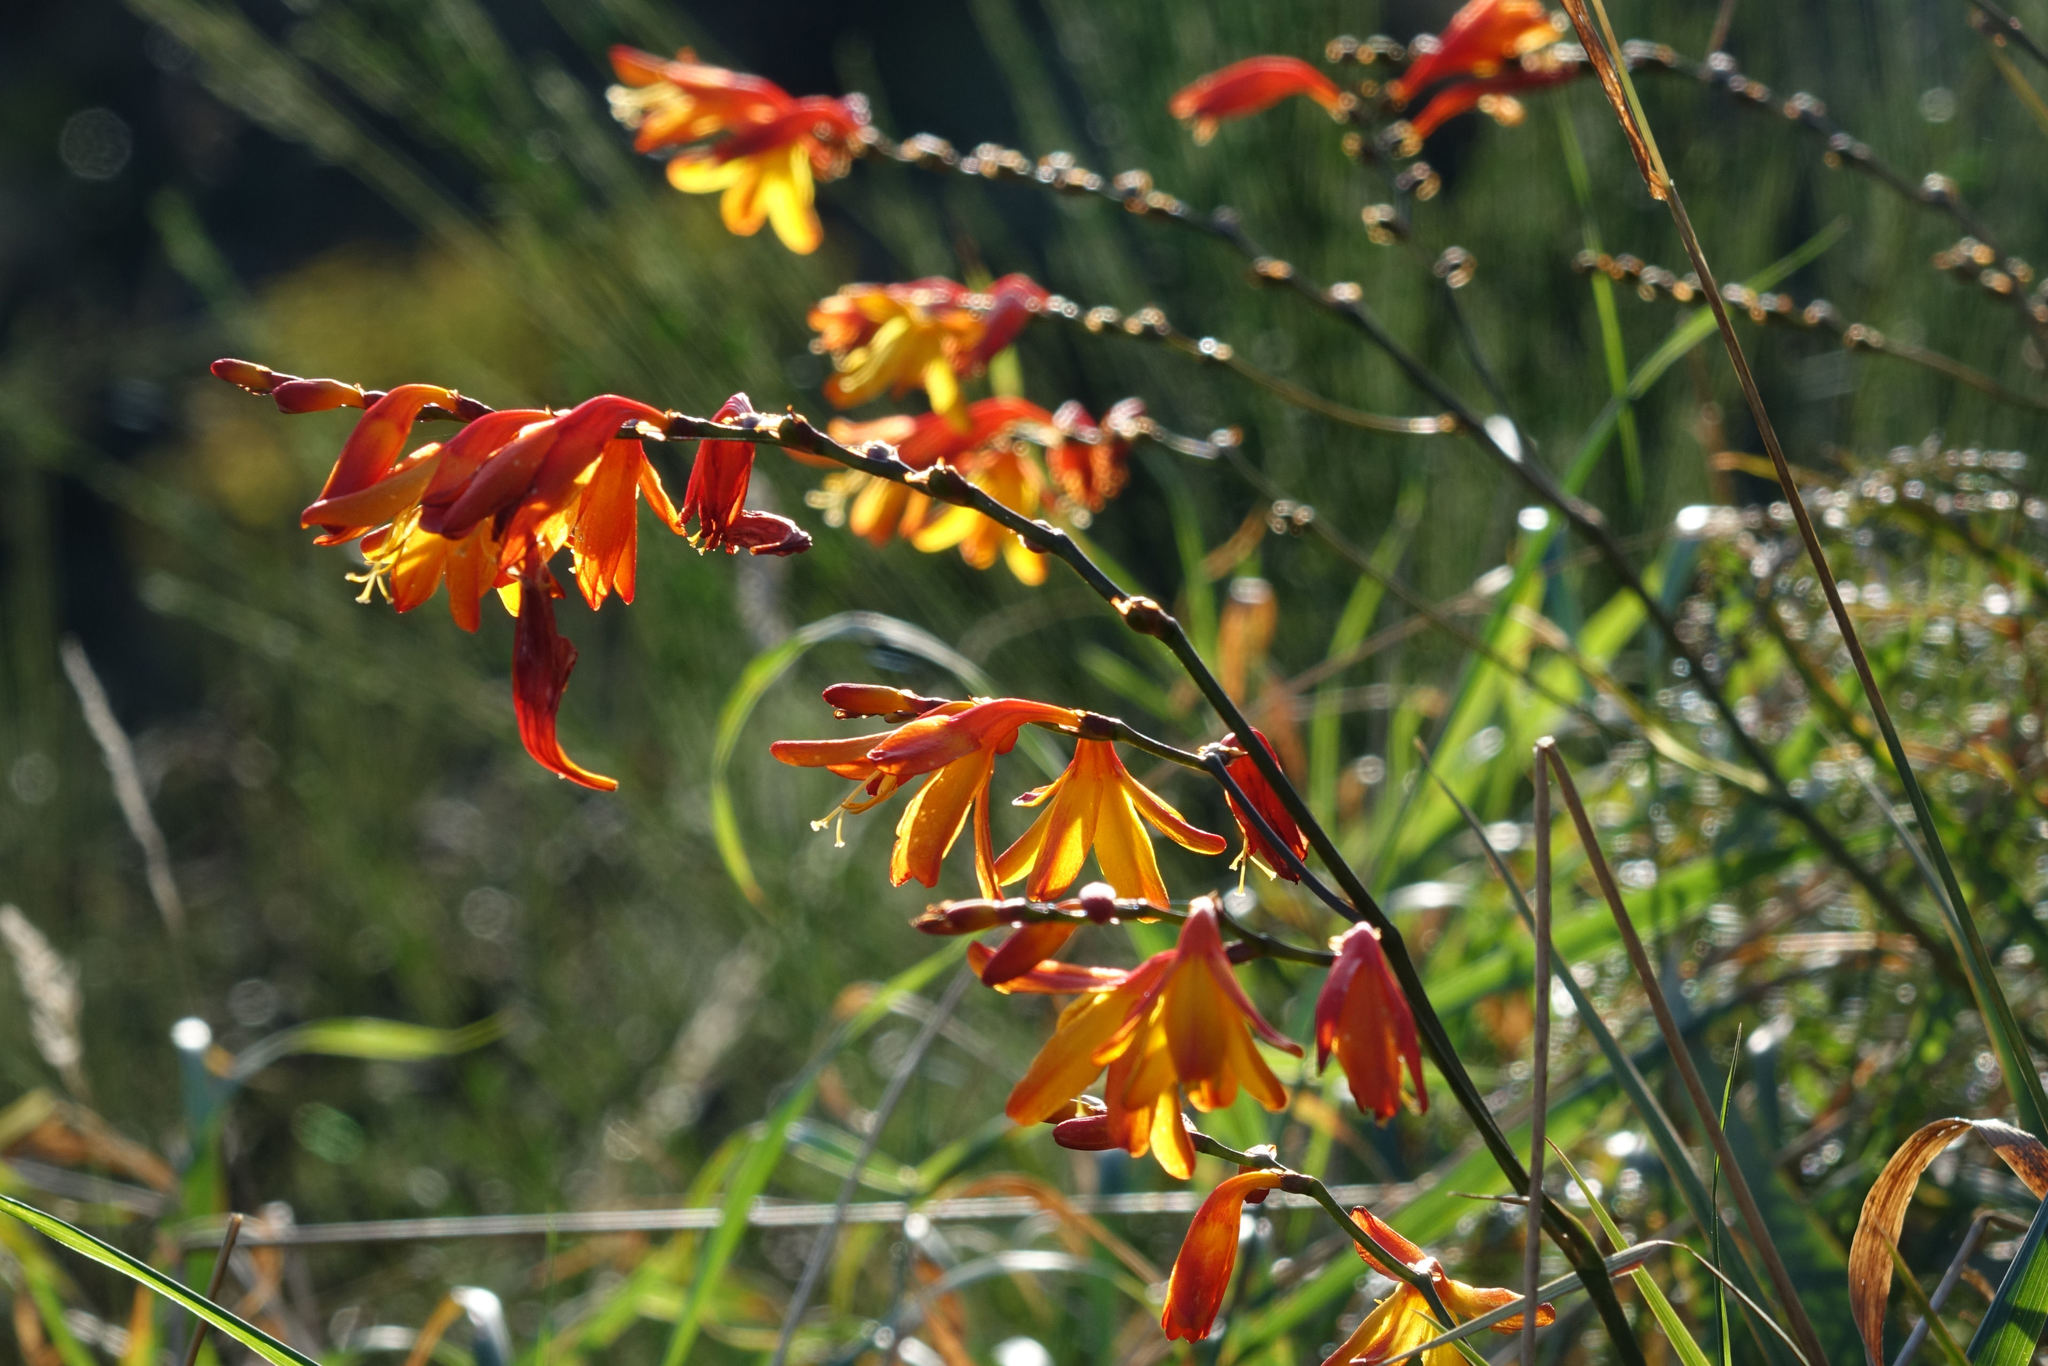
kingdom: Plantae
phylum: Tracheophyta
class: Liliopsida
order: Asparagales
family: Iridaceae
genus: Crocosmia
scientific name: Crocosmia crocosmiiflora
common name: Montbretia
